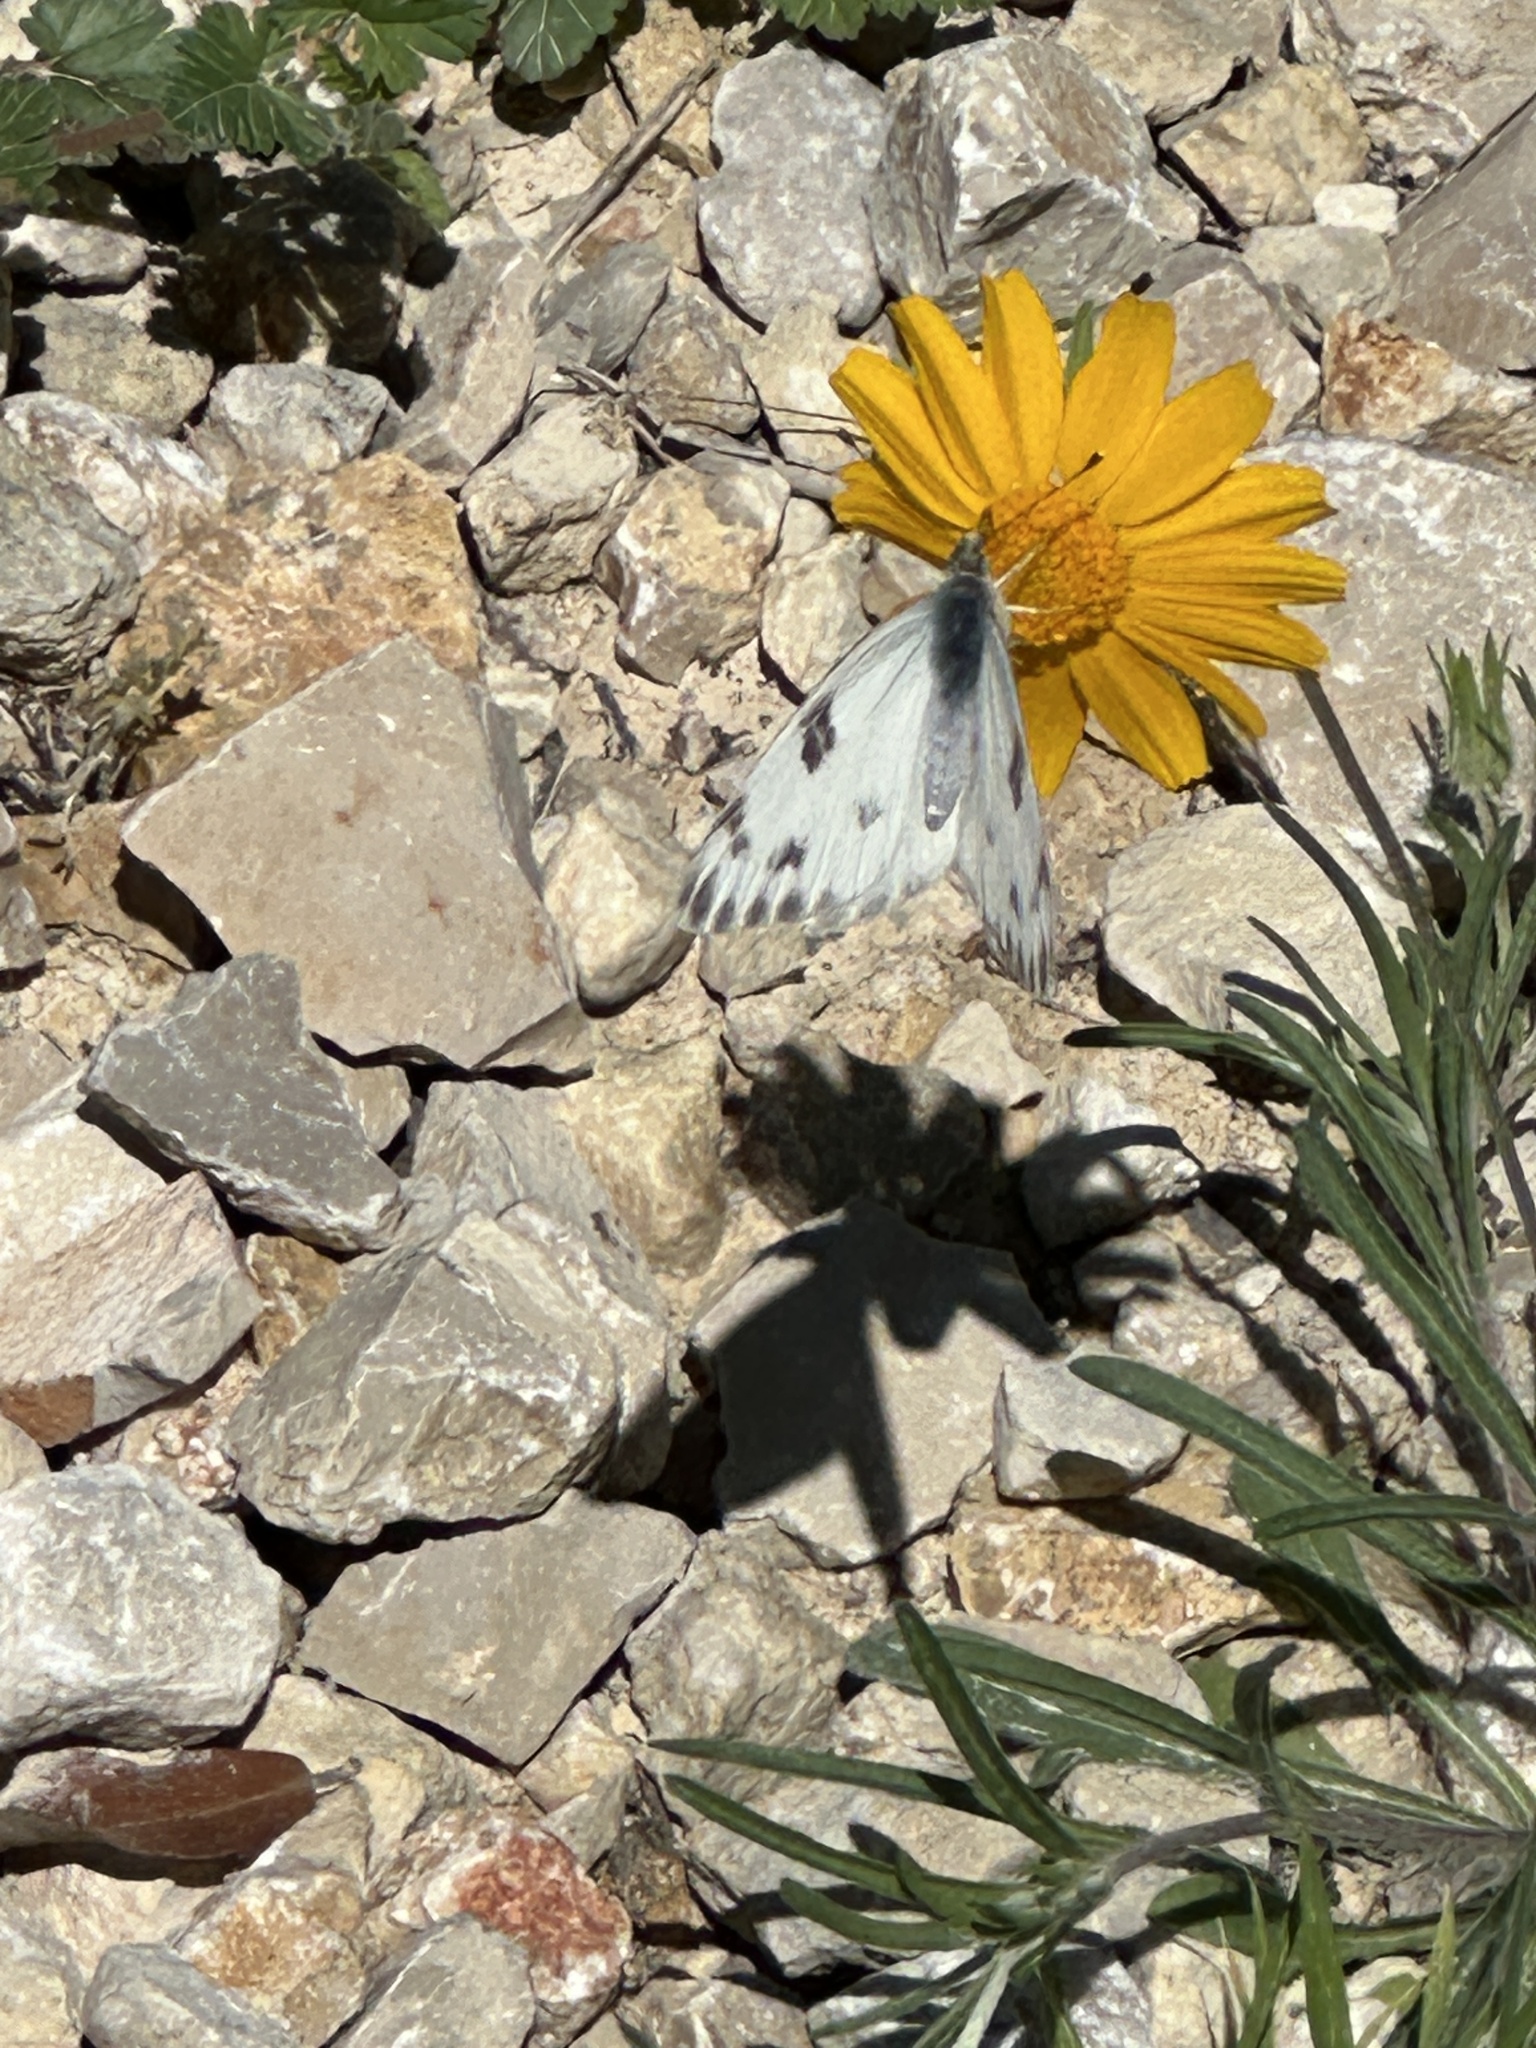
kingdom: Animalia
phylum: Arthropoda
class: Insecta
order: Lepidoptera
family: Pieridae
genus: Pontia
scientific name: Pontia protodice
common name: Checkered white
